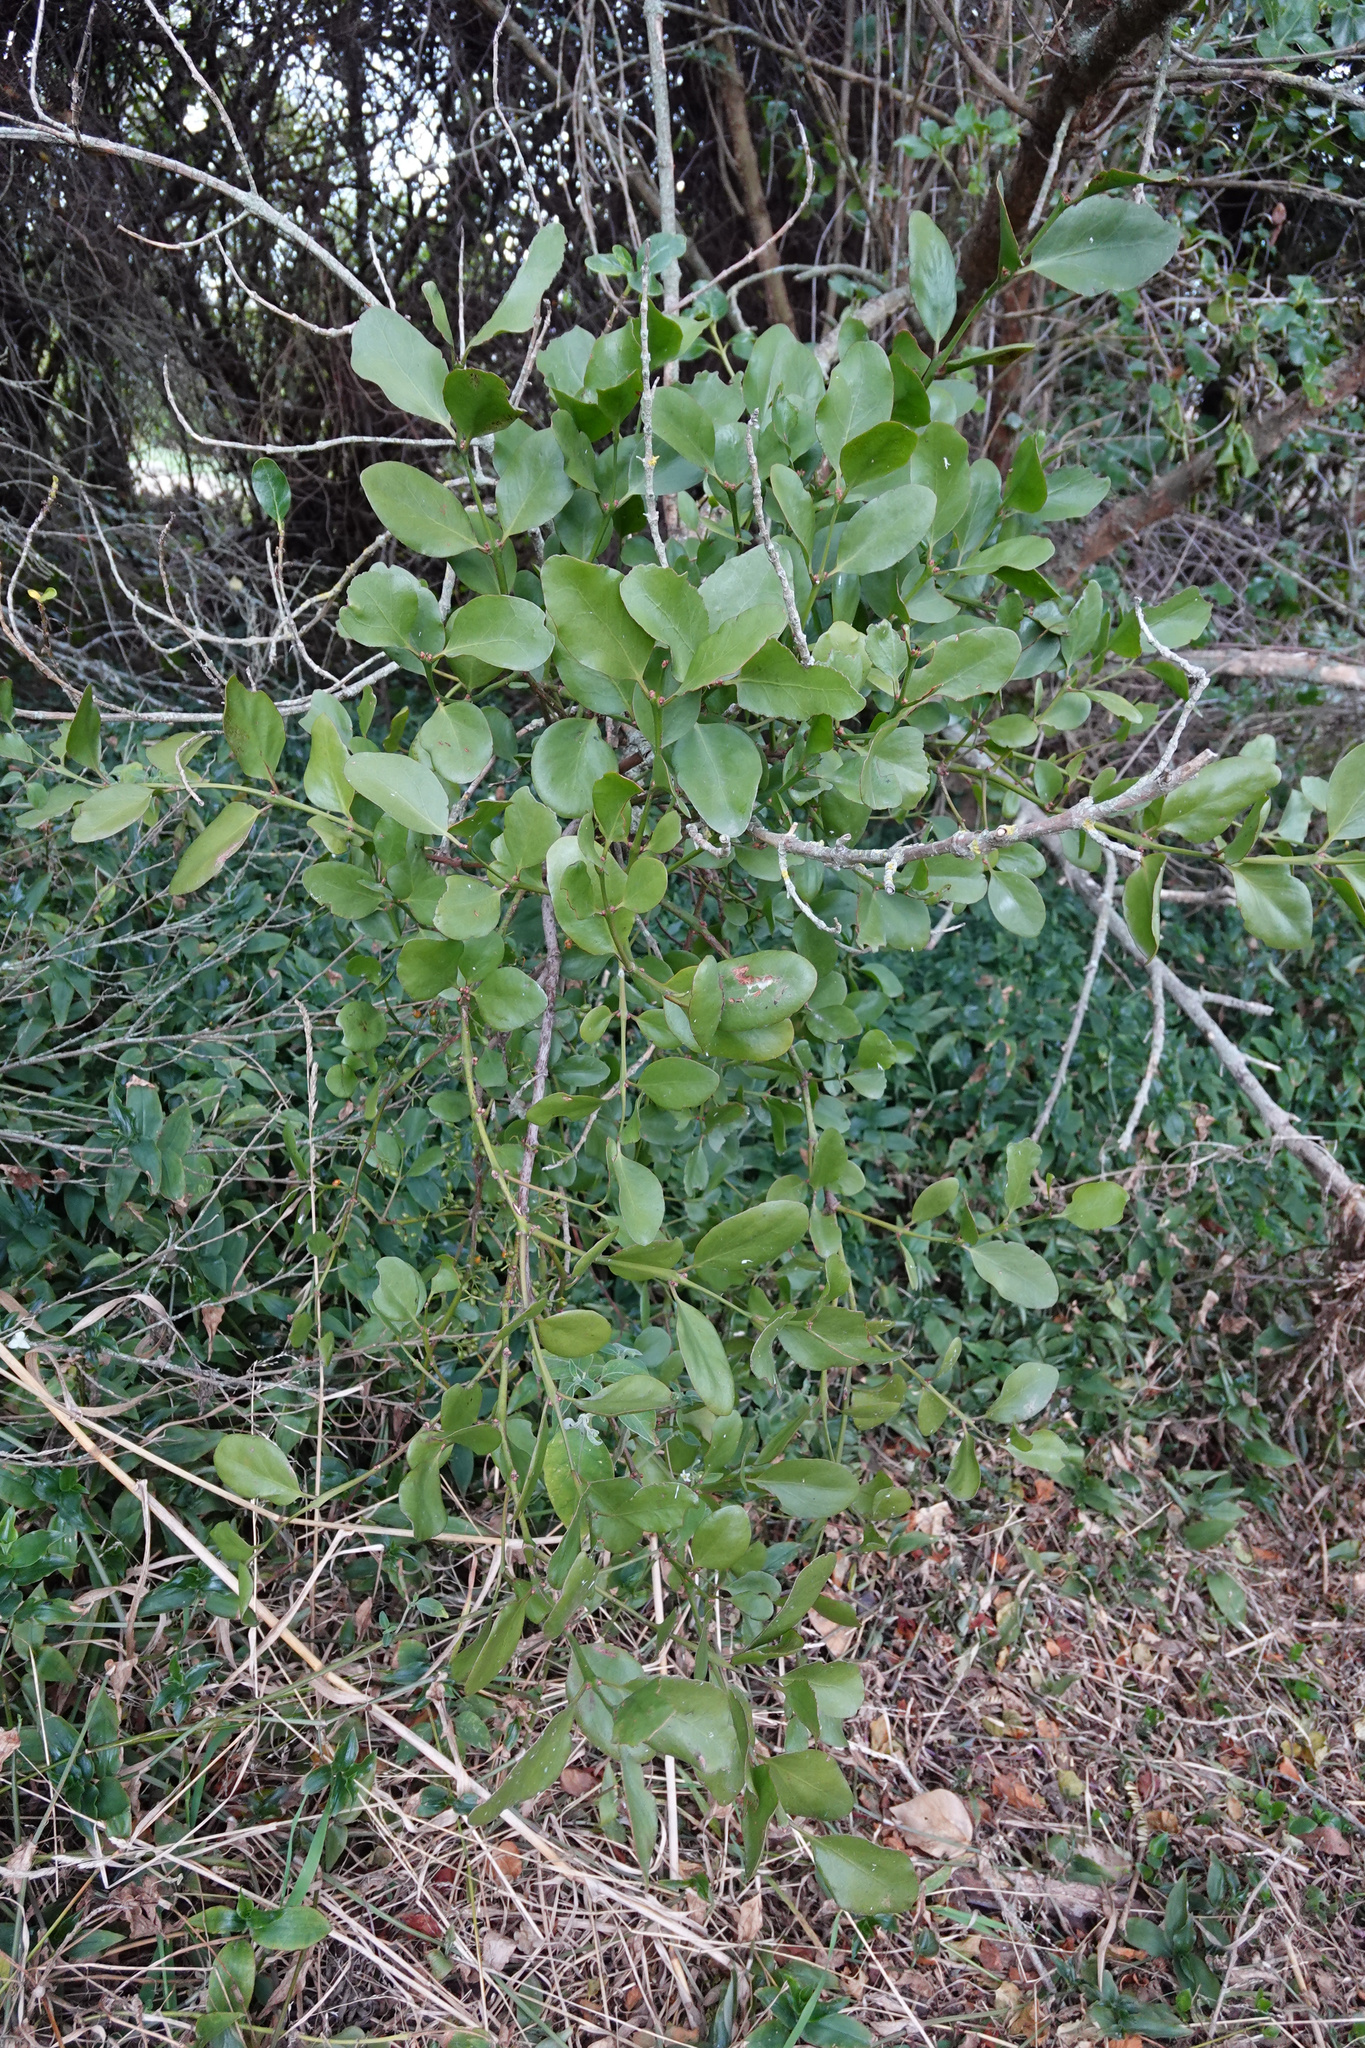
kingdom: Plantae
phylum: Tracheophyta
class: Magnoliopsida
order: Santalales
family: Loranthaceae
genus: Ileostylus
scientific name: Ileostylus micranthus
